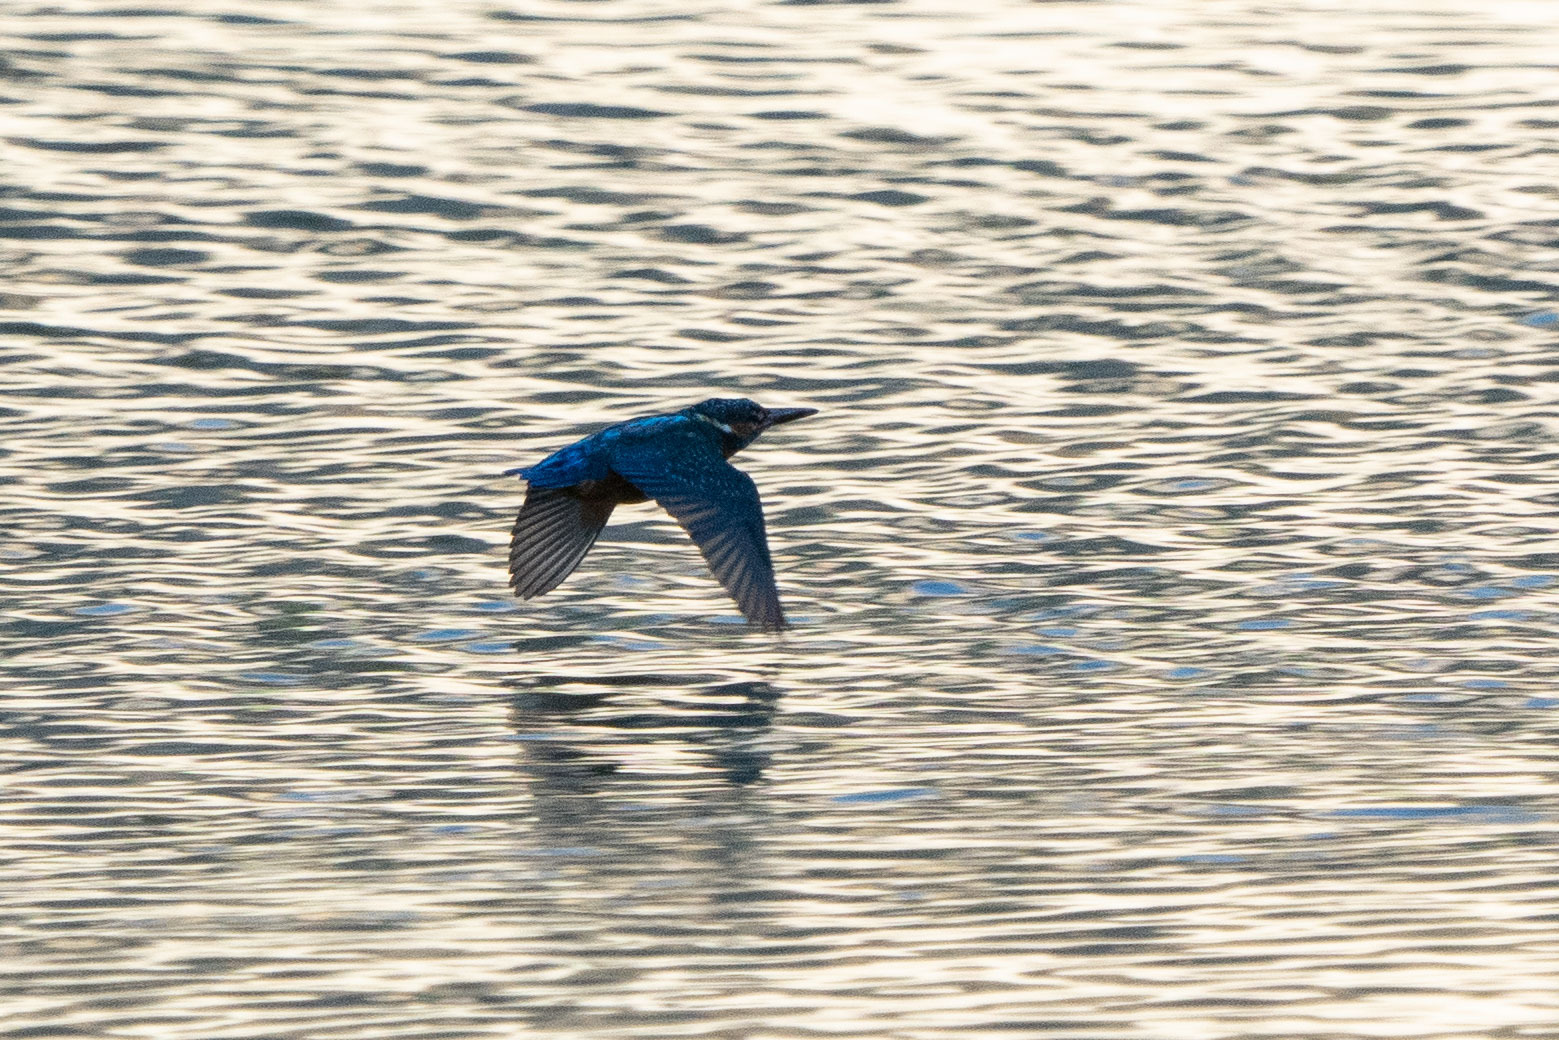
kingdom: Animalia
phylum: Chordata
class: Aves
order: Coraciiformes
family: Alcedinidae
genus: Alcedo
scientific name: Alcedo atthis
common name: Common kingfisher
